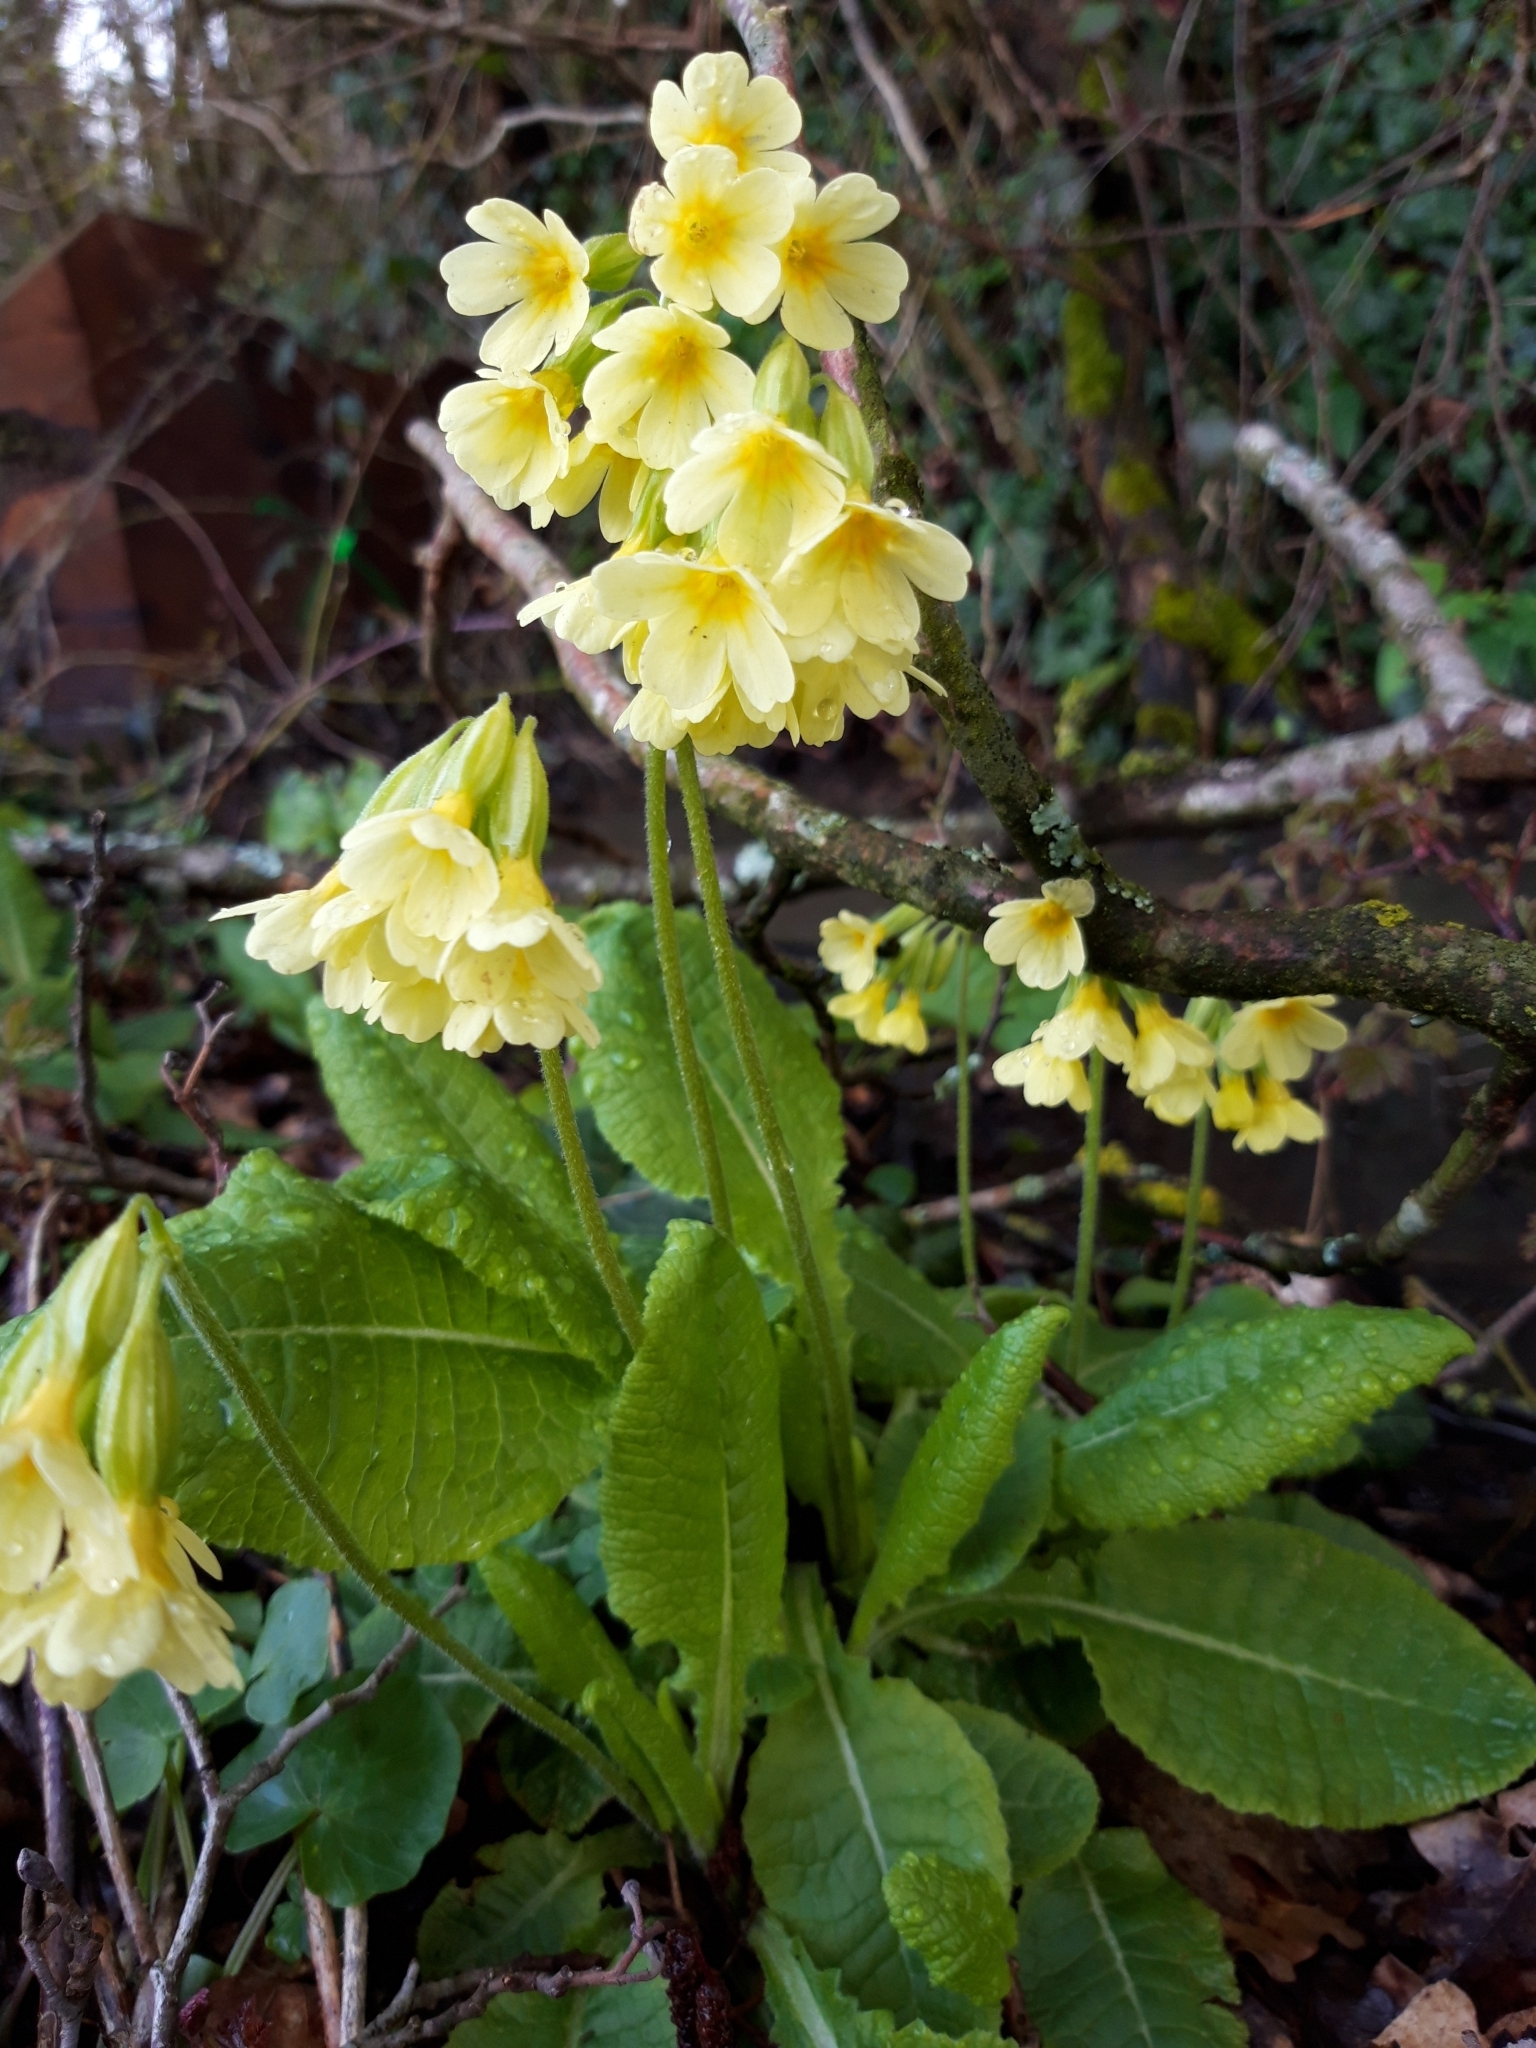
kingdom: Plantae
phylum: Tracheophyta
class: Magnoliopsida
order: Ericales
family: Primulaceae
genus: Primula
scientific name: Primula elatior
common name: Oxlip
